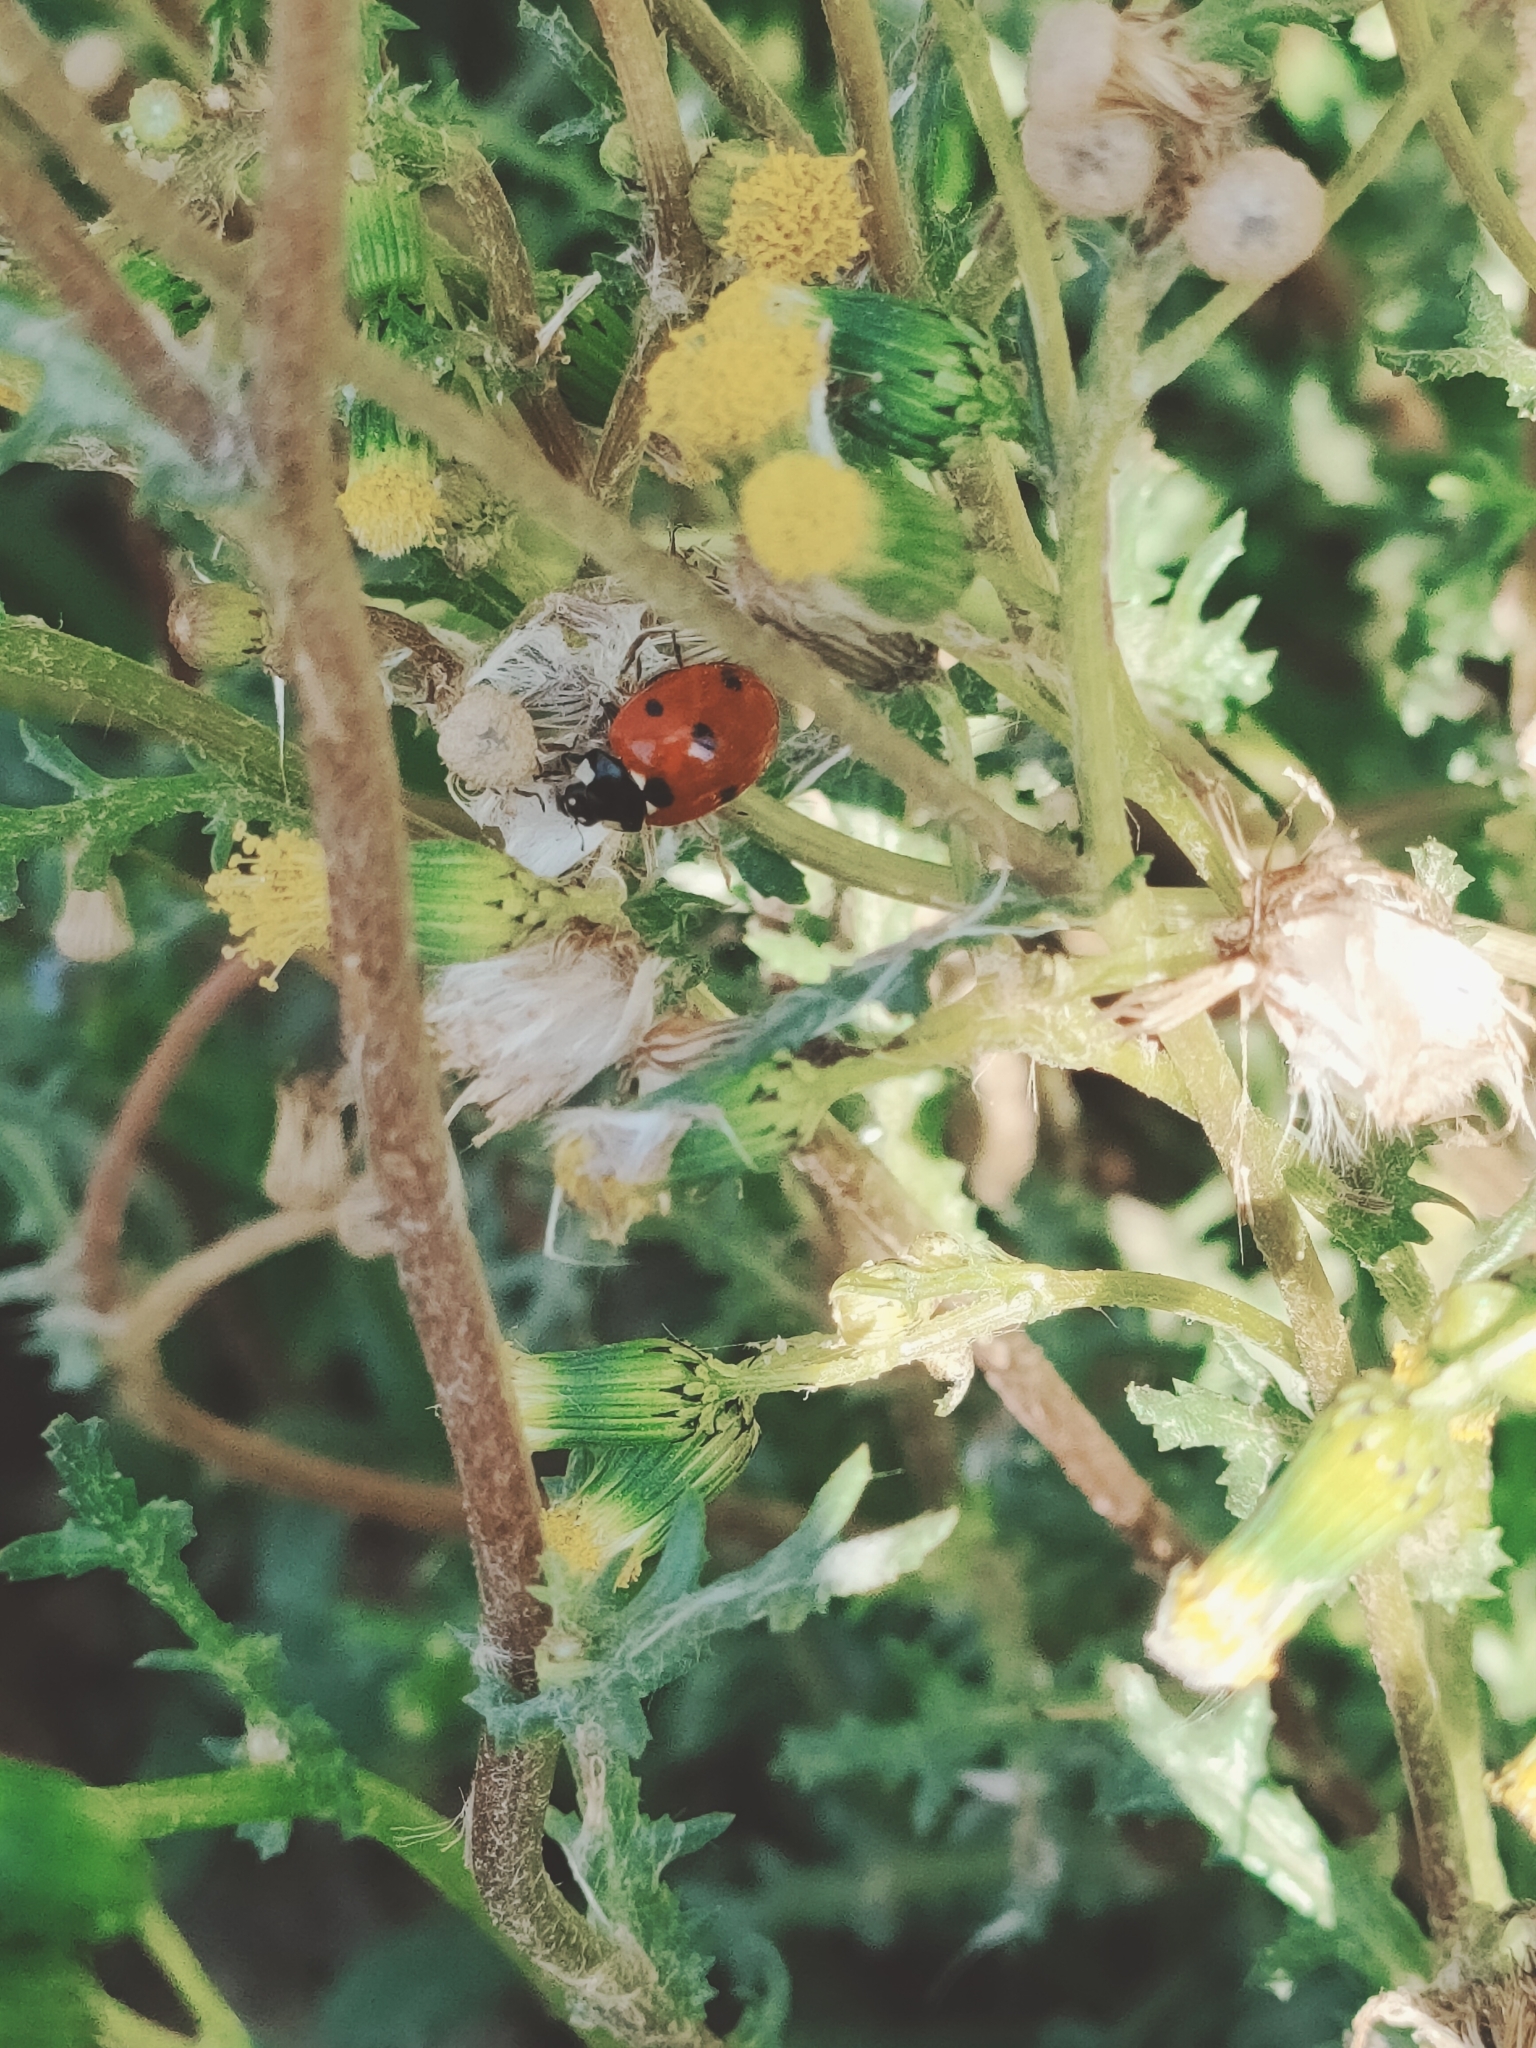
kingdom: Animalia
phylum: Arthropoda
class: Insecta
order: Coleoptera
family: Coccinellidae
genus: Coccinella
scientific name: Coccinella septempunctata
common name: Sevenspotted lady beetle
